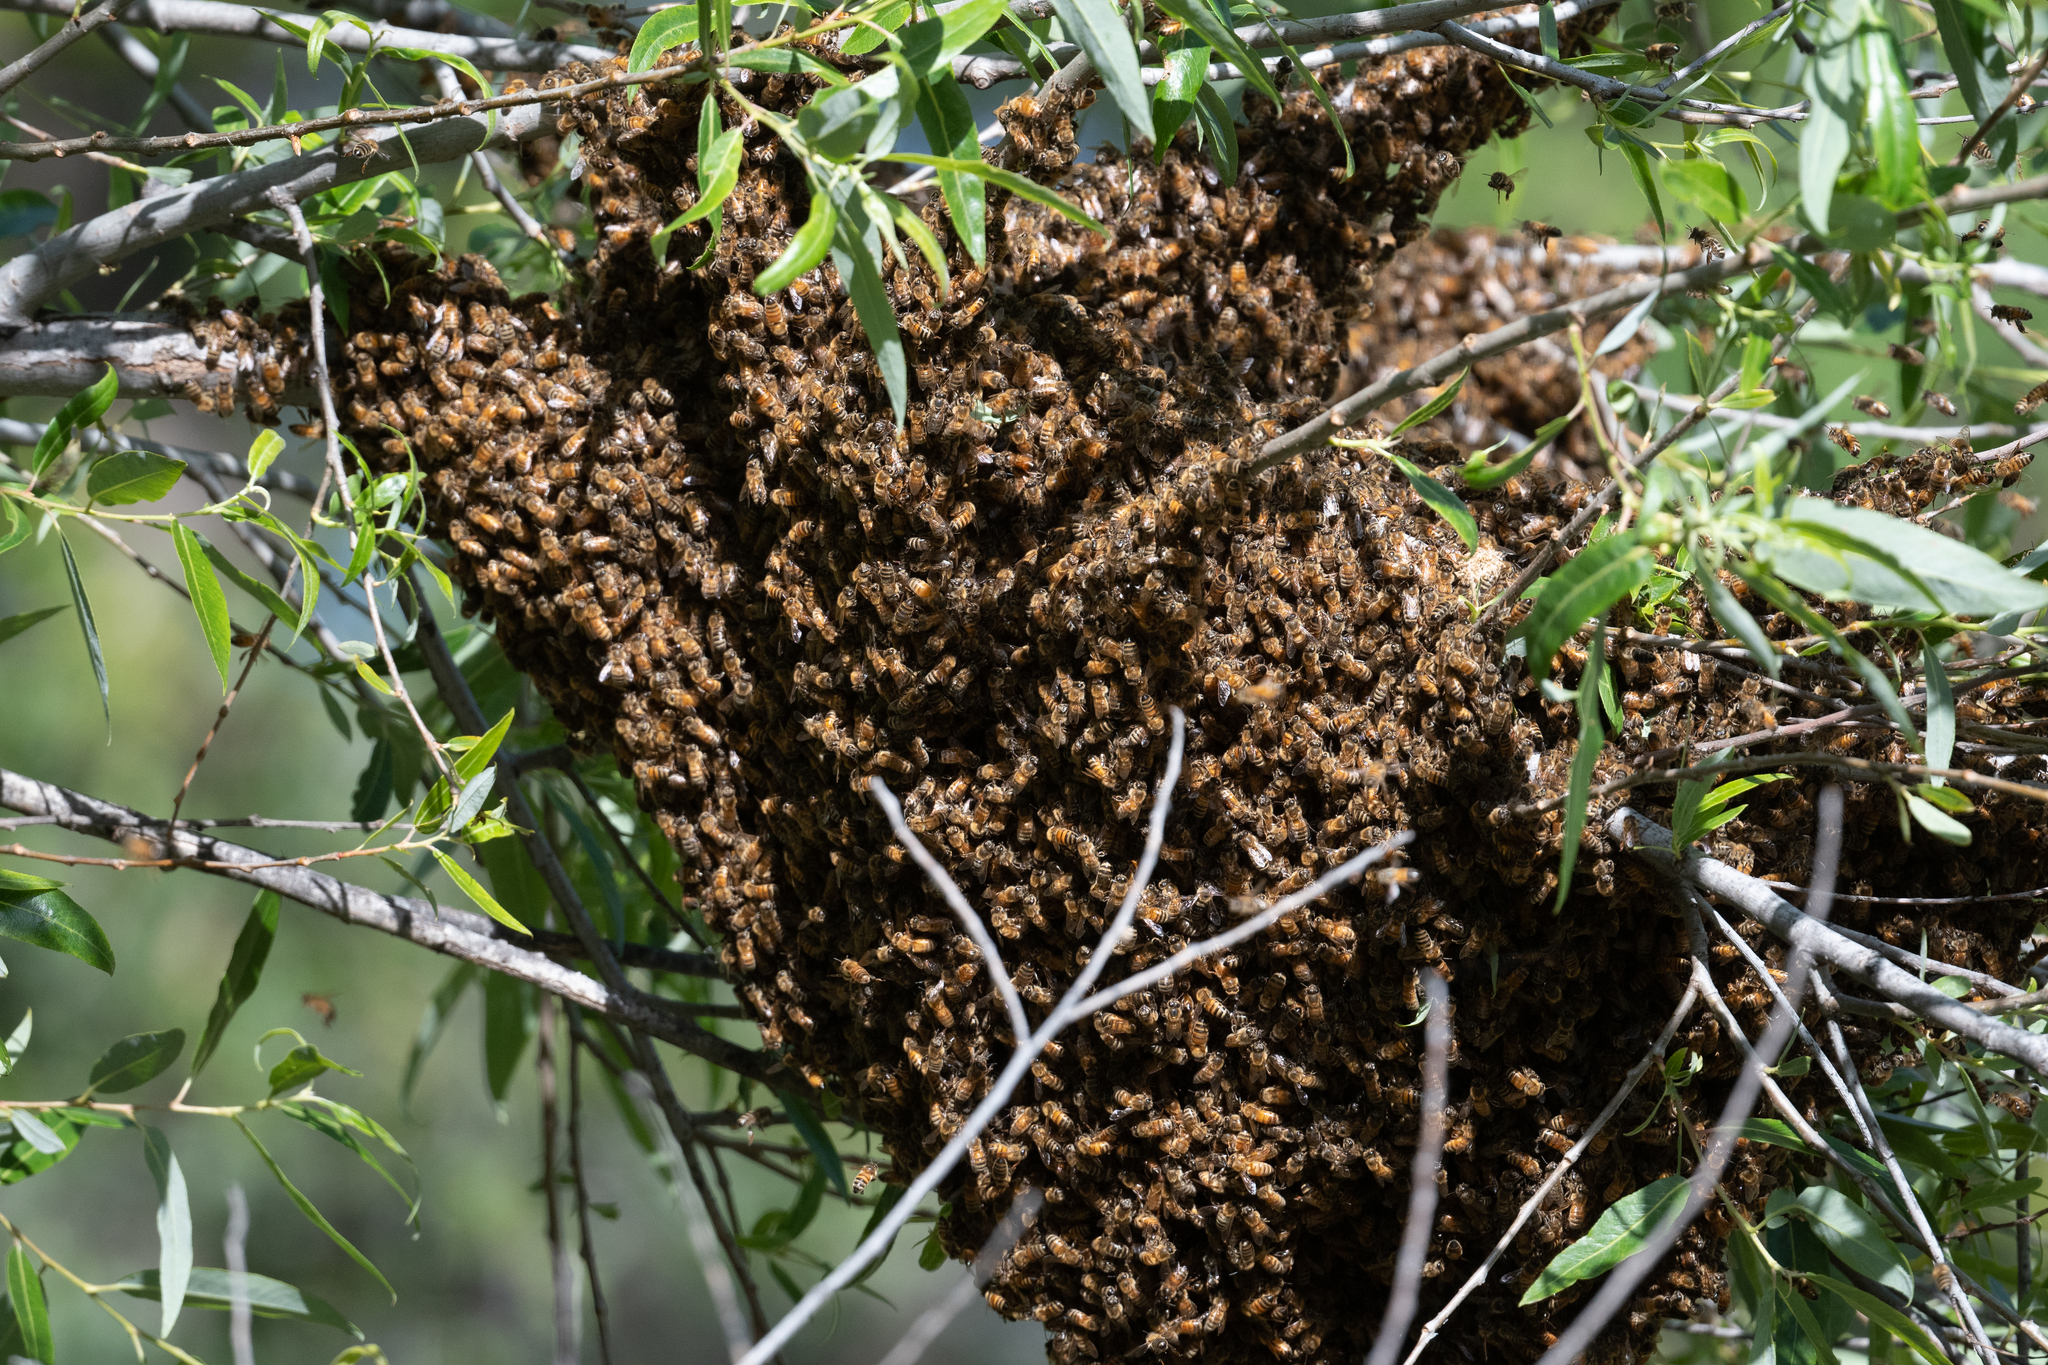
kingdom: Animalia
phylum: Arthropoda
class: Insecta
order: Hymenoptera
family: Apidae
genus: Apis
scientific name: Apis mellifera
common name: Honey bee
